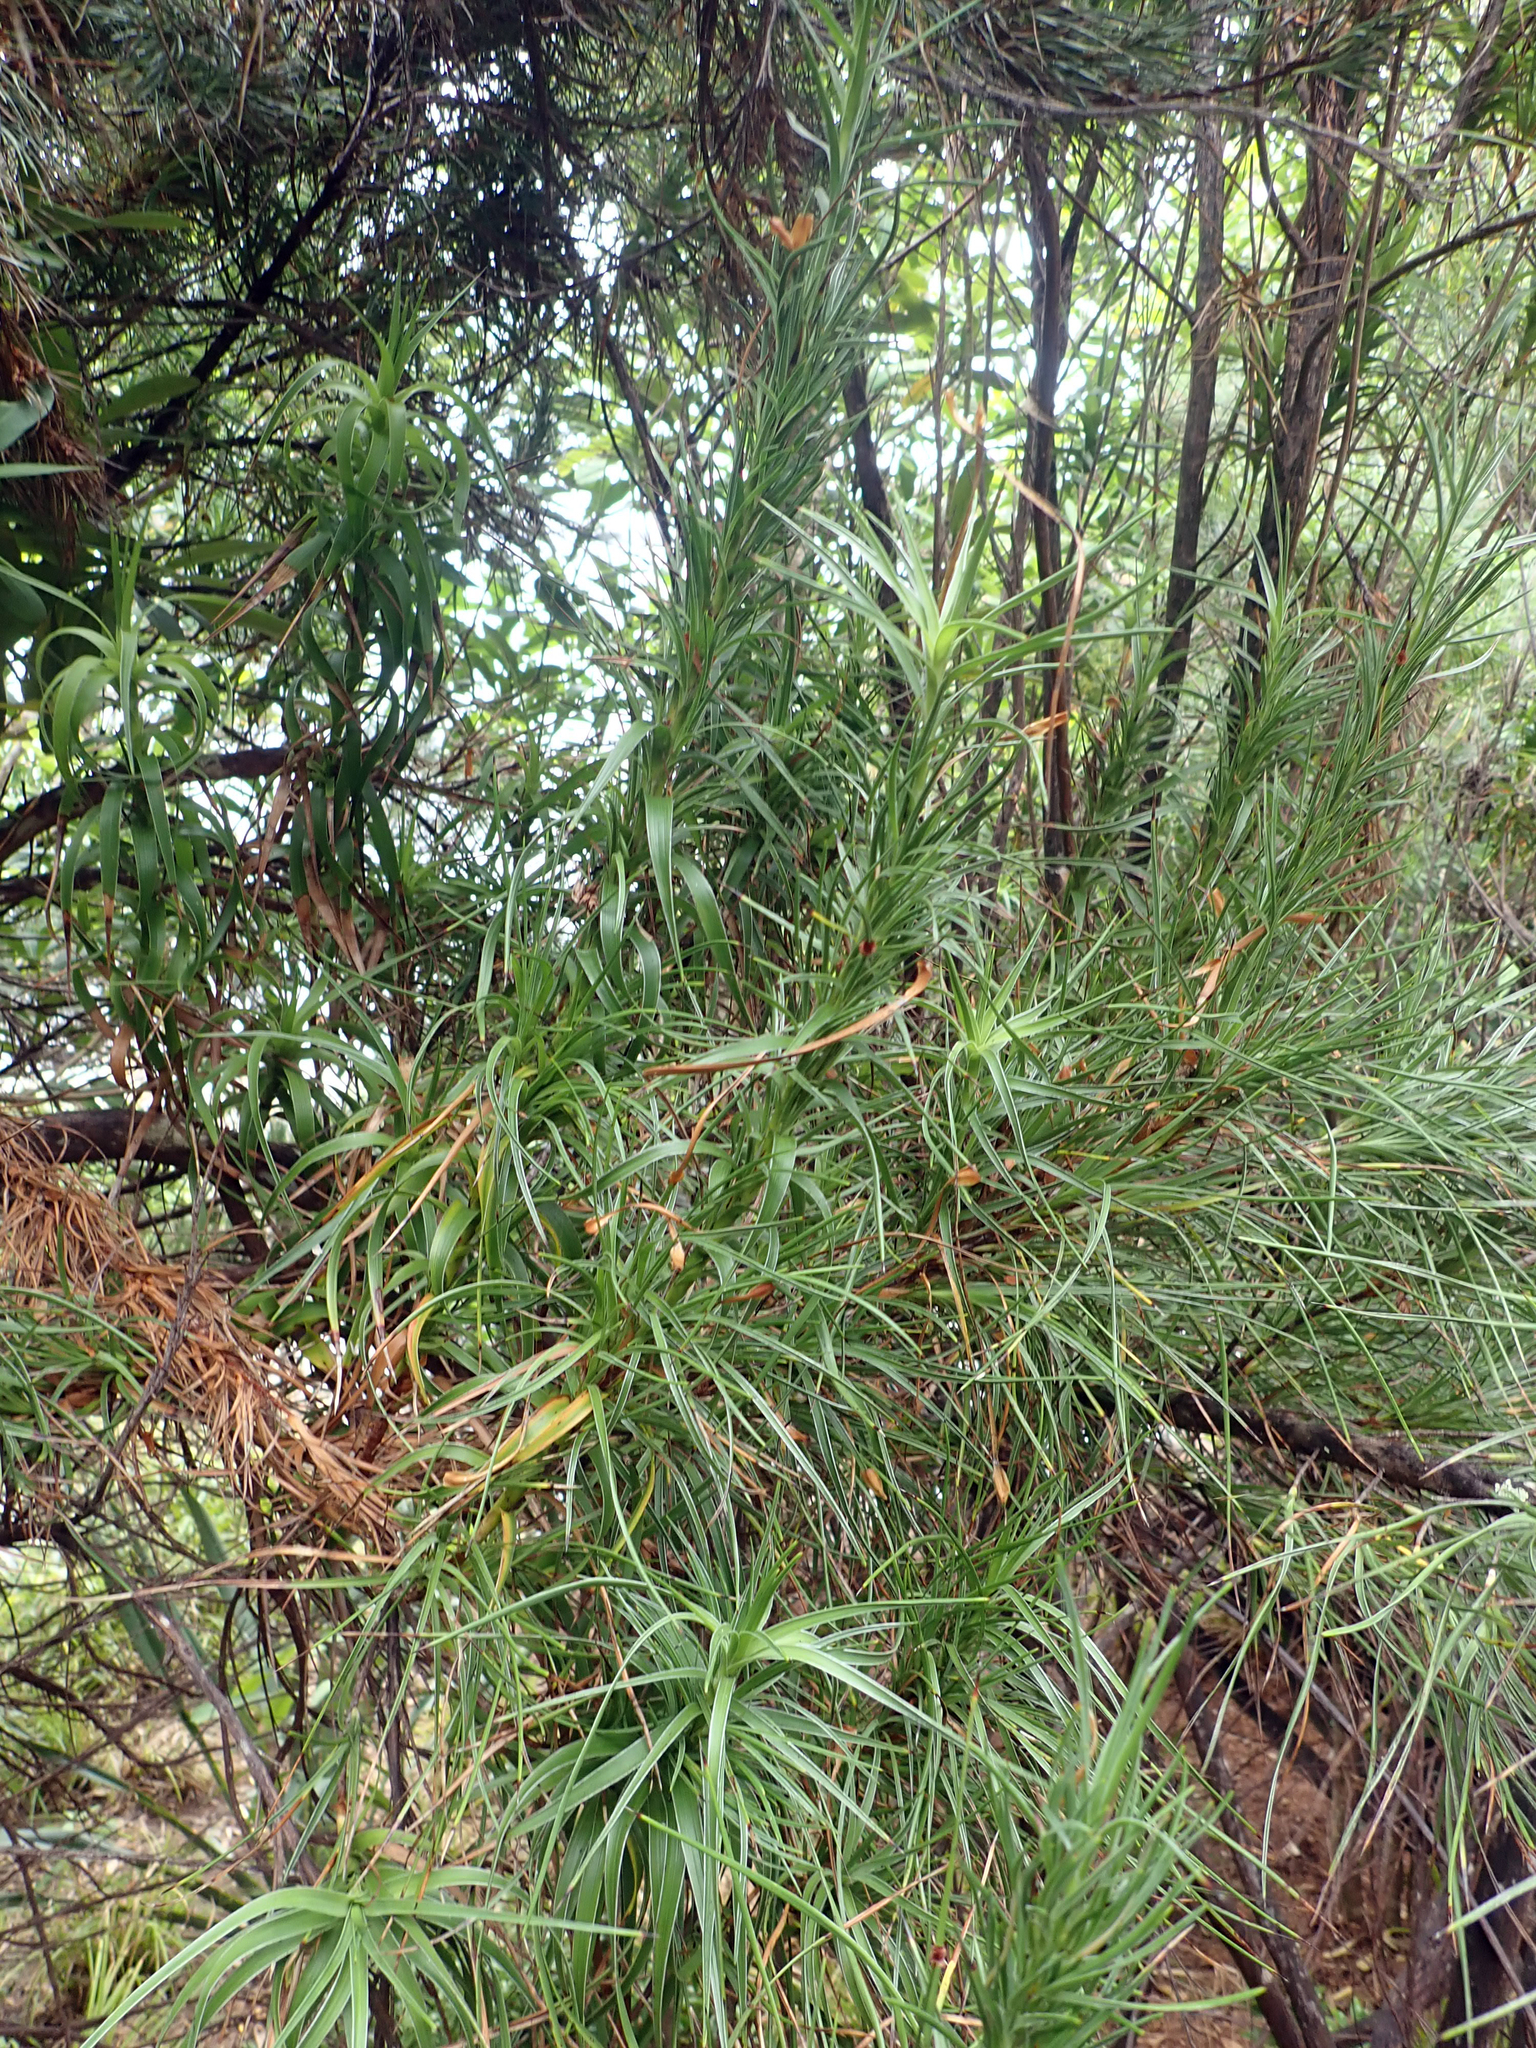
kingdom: Plantae
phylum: Tracheophyta
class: Magnoliopsida
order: Ericales
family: Ericaceae
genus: Dracophyllum
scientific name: Dracophyllum arboreum
